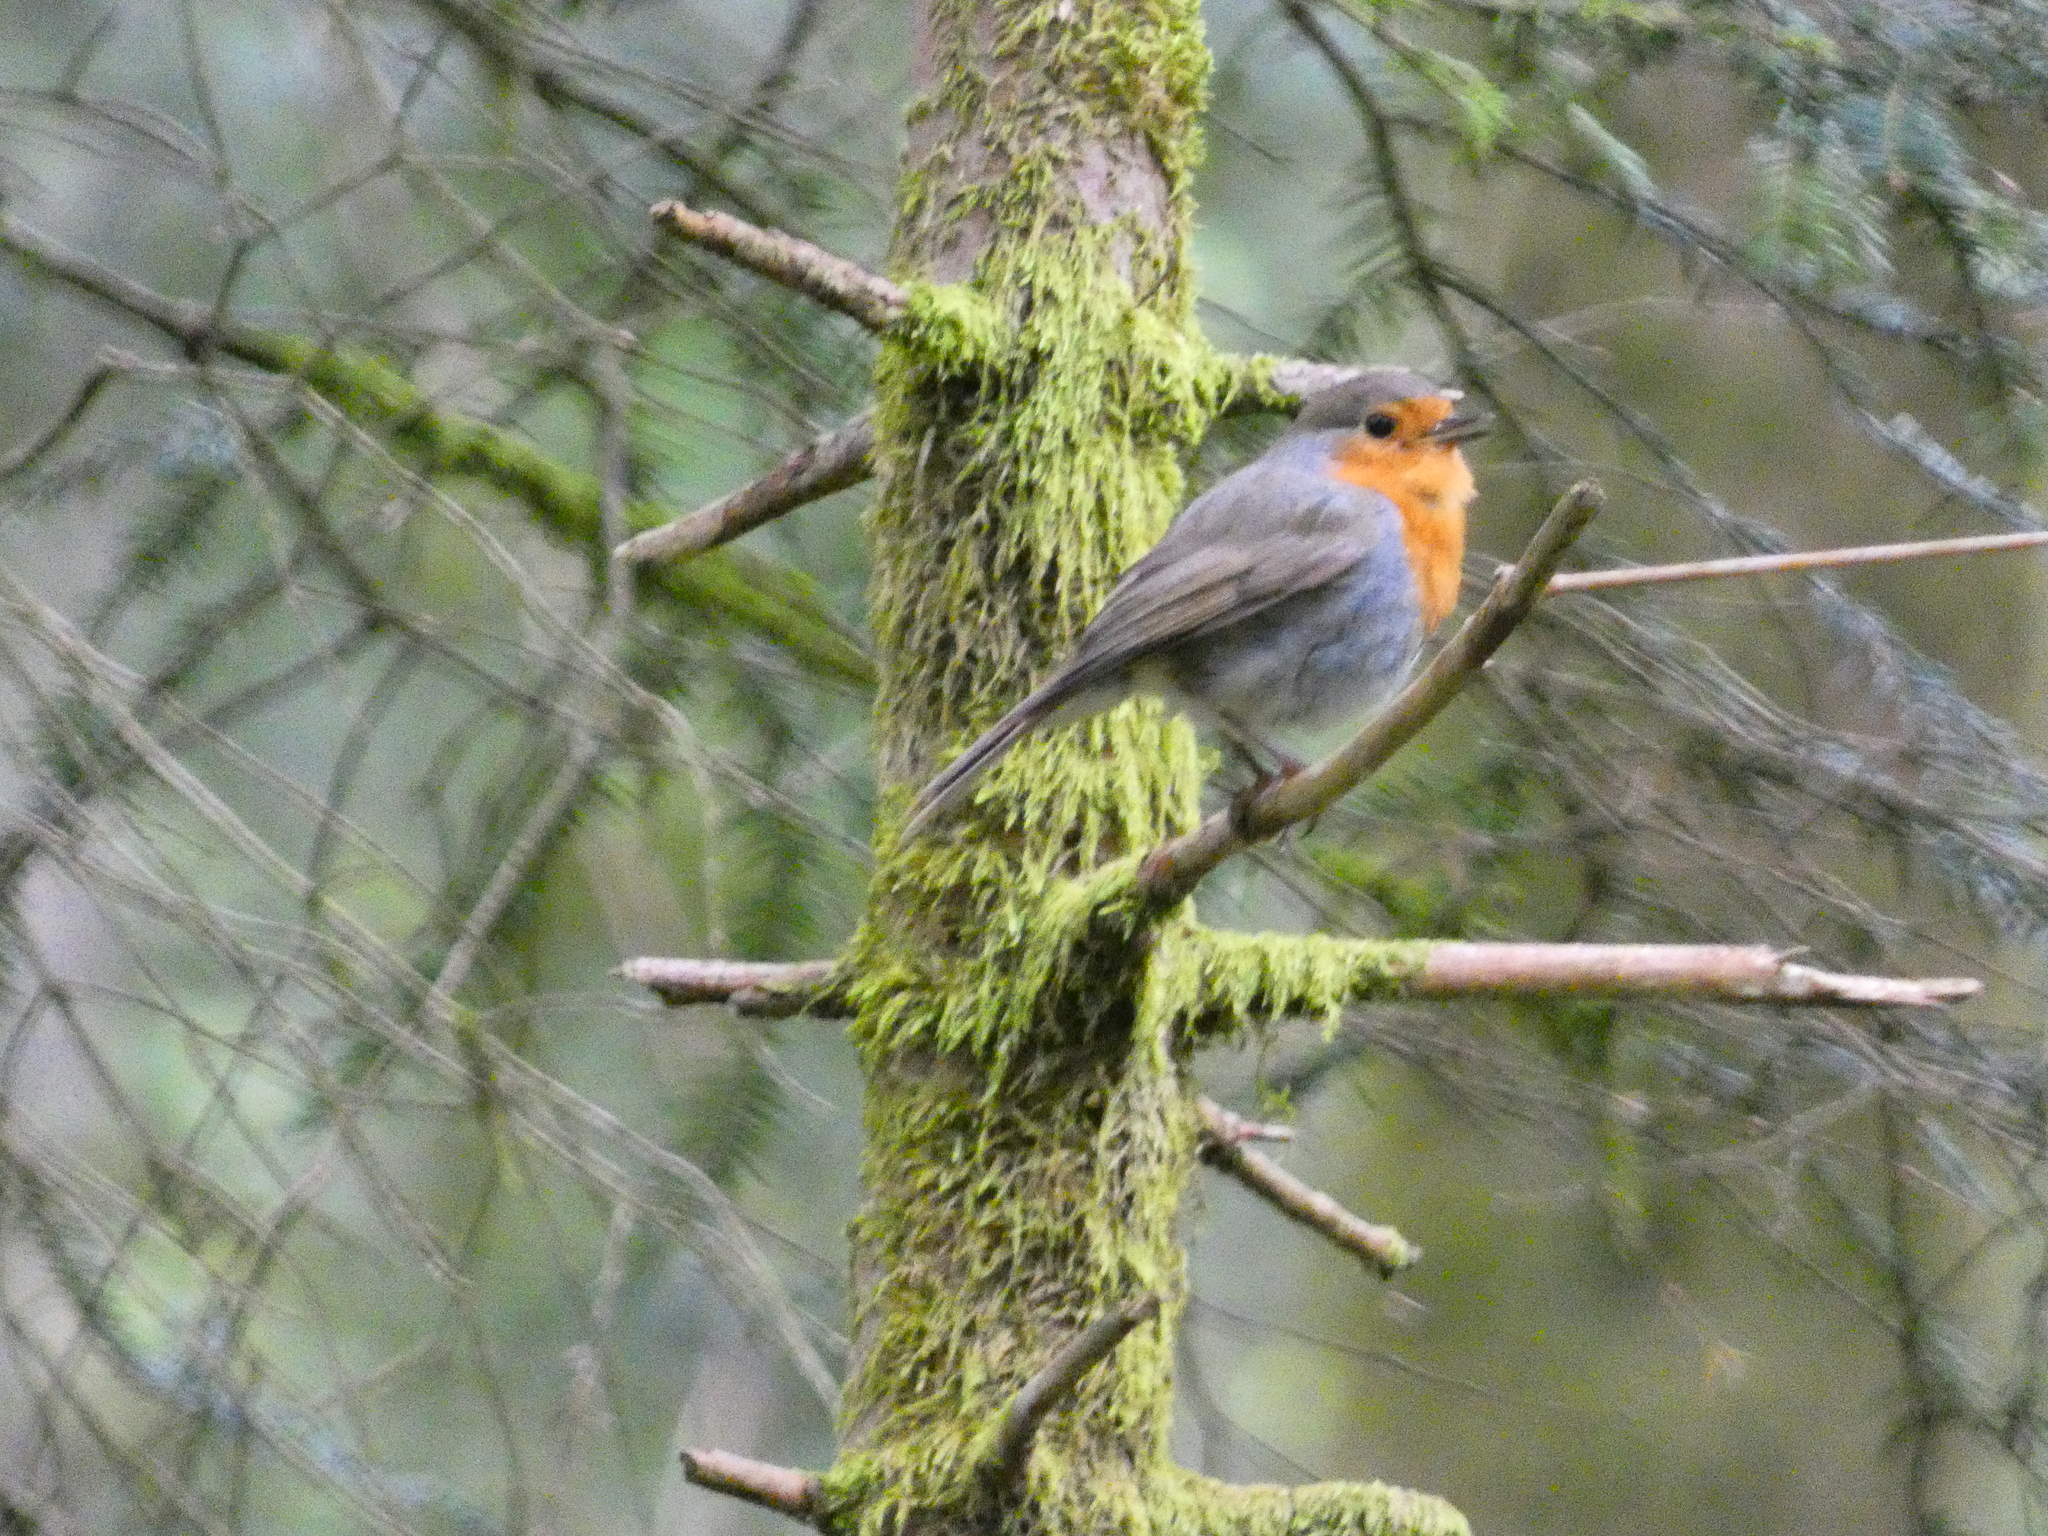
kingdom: Animalia
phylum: Chordata
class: Aves
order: Passeriformes
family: Muscicapidae
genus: Erithacus
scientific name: Erithacus rubecula
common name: European robin
